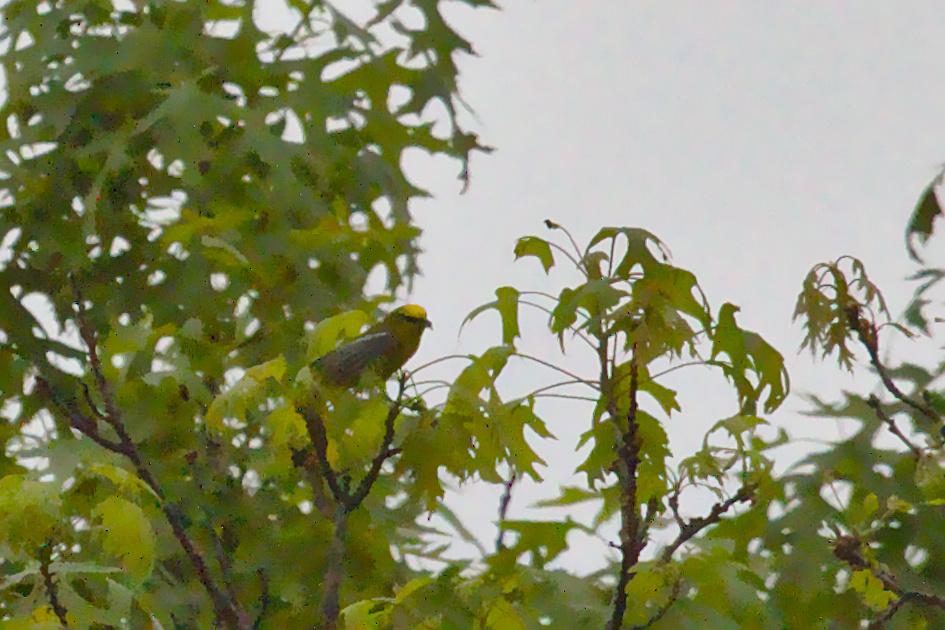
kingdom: Animalia
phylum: Chordata
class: Aves
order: Passeriformes
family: Parulidae
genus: Vermivora
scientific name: Vermivora cyanoptera
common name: Blue-winged warbler
